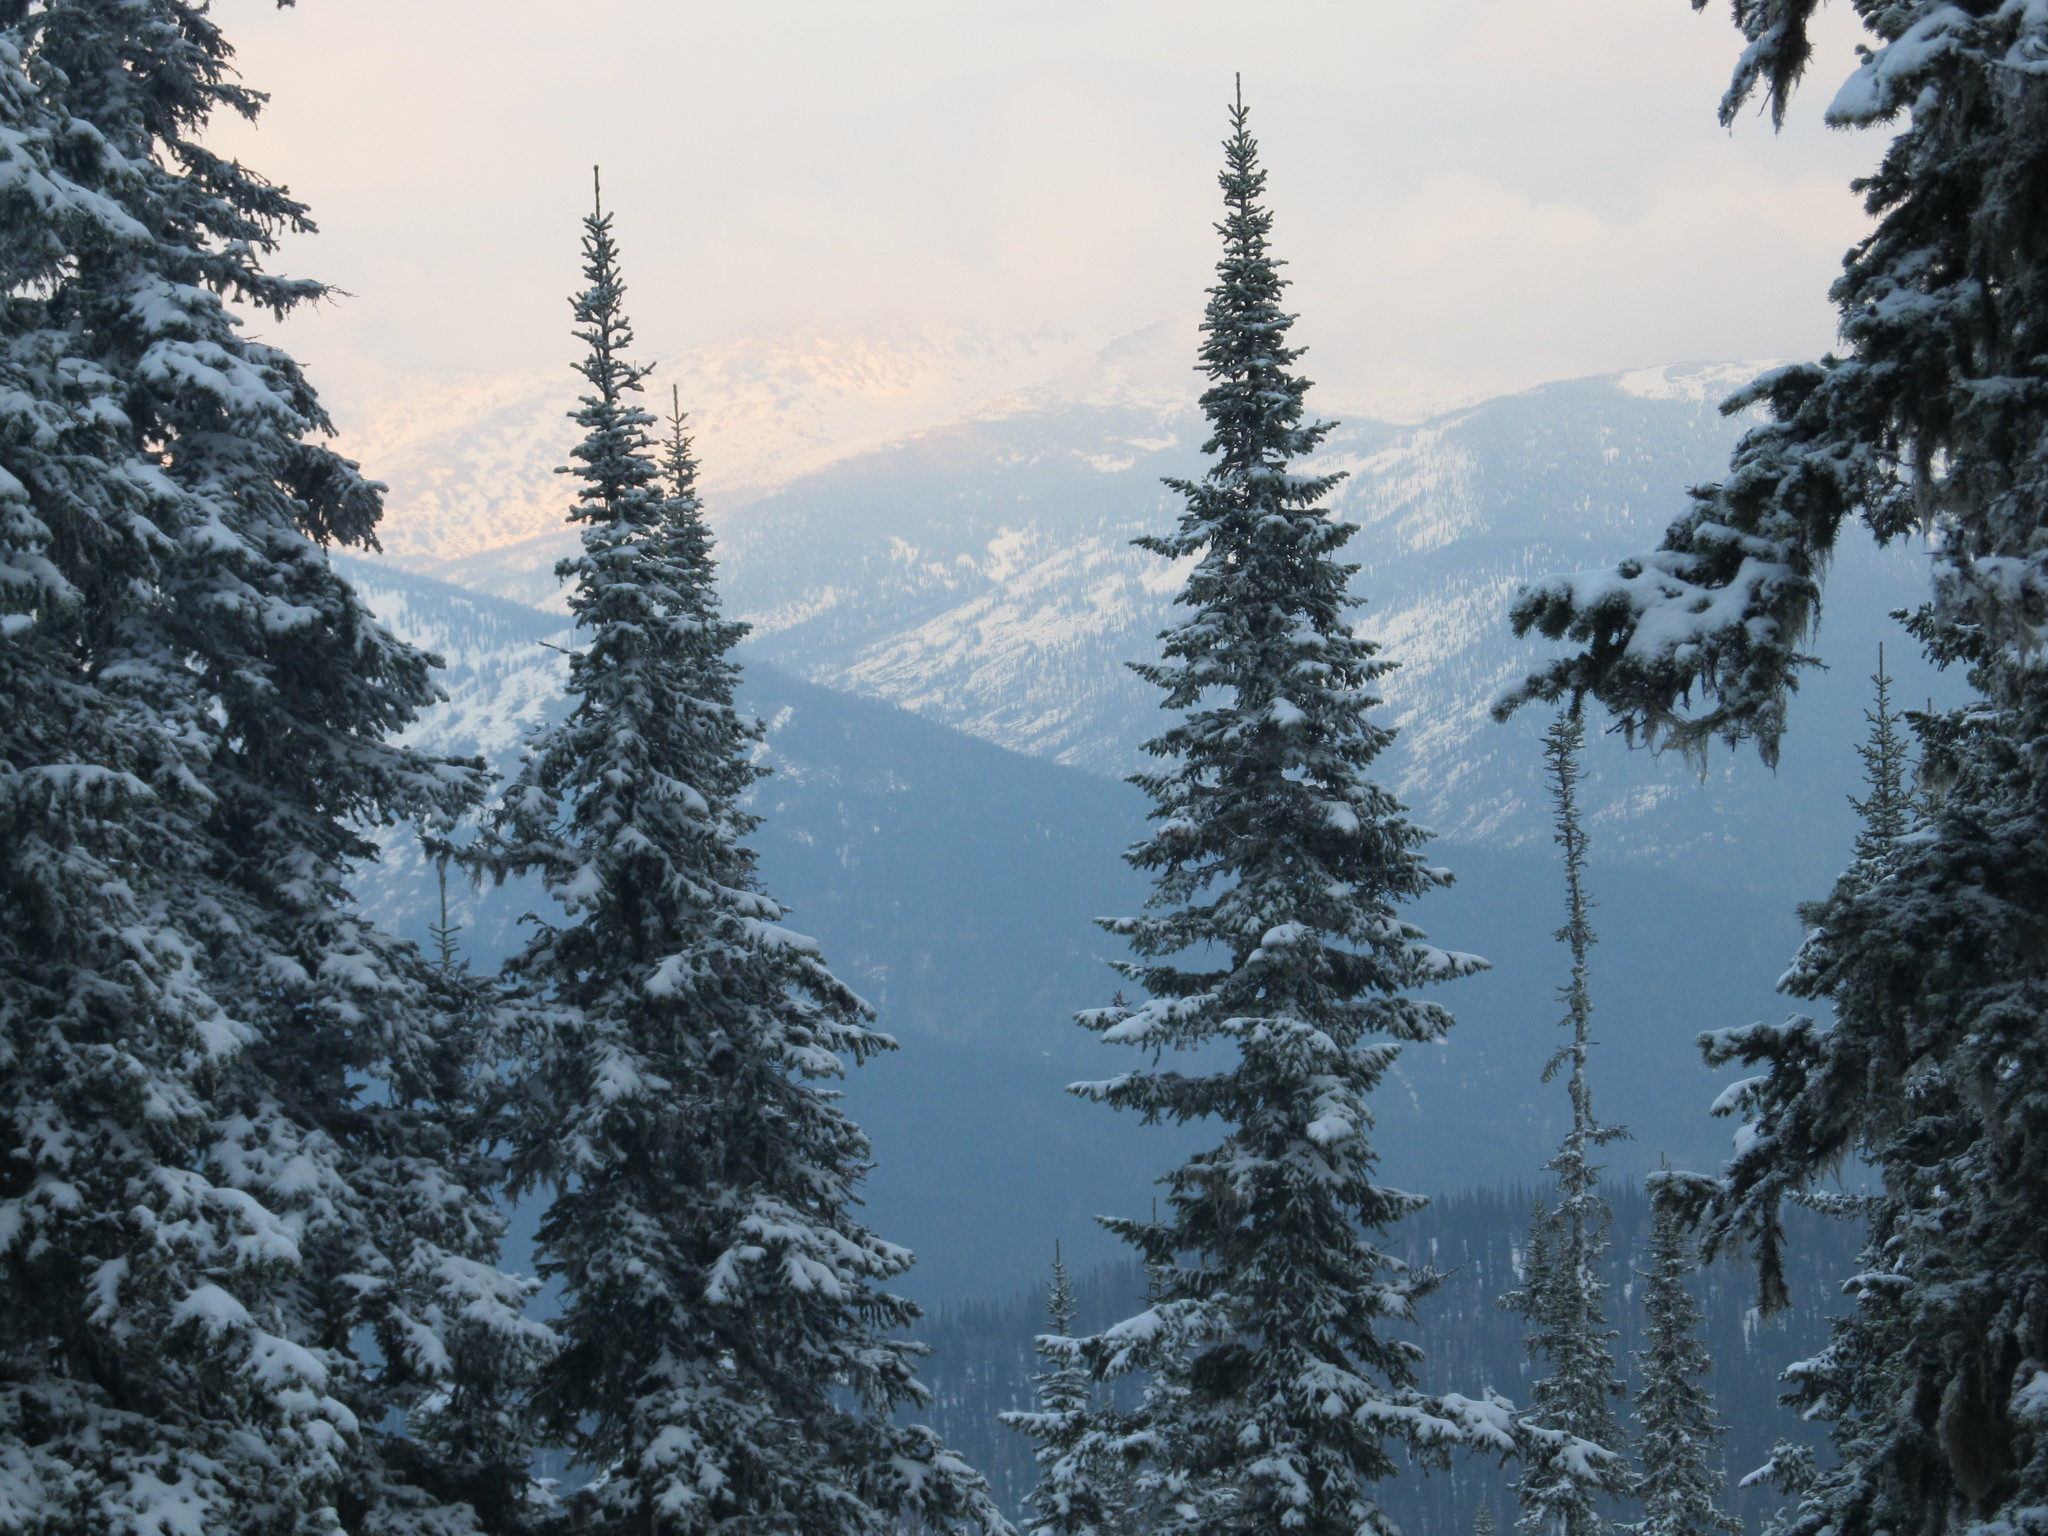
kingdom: Plantae
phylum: Tracheophyta
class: Pinopsida
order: Pinales
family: Pinaceae
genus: Abies
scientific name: Abies sibirica
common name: Siberian fir
